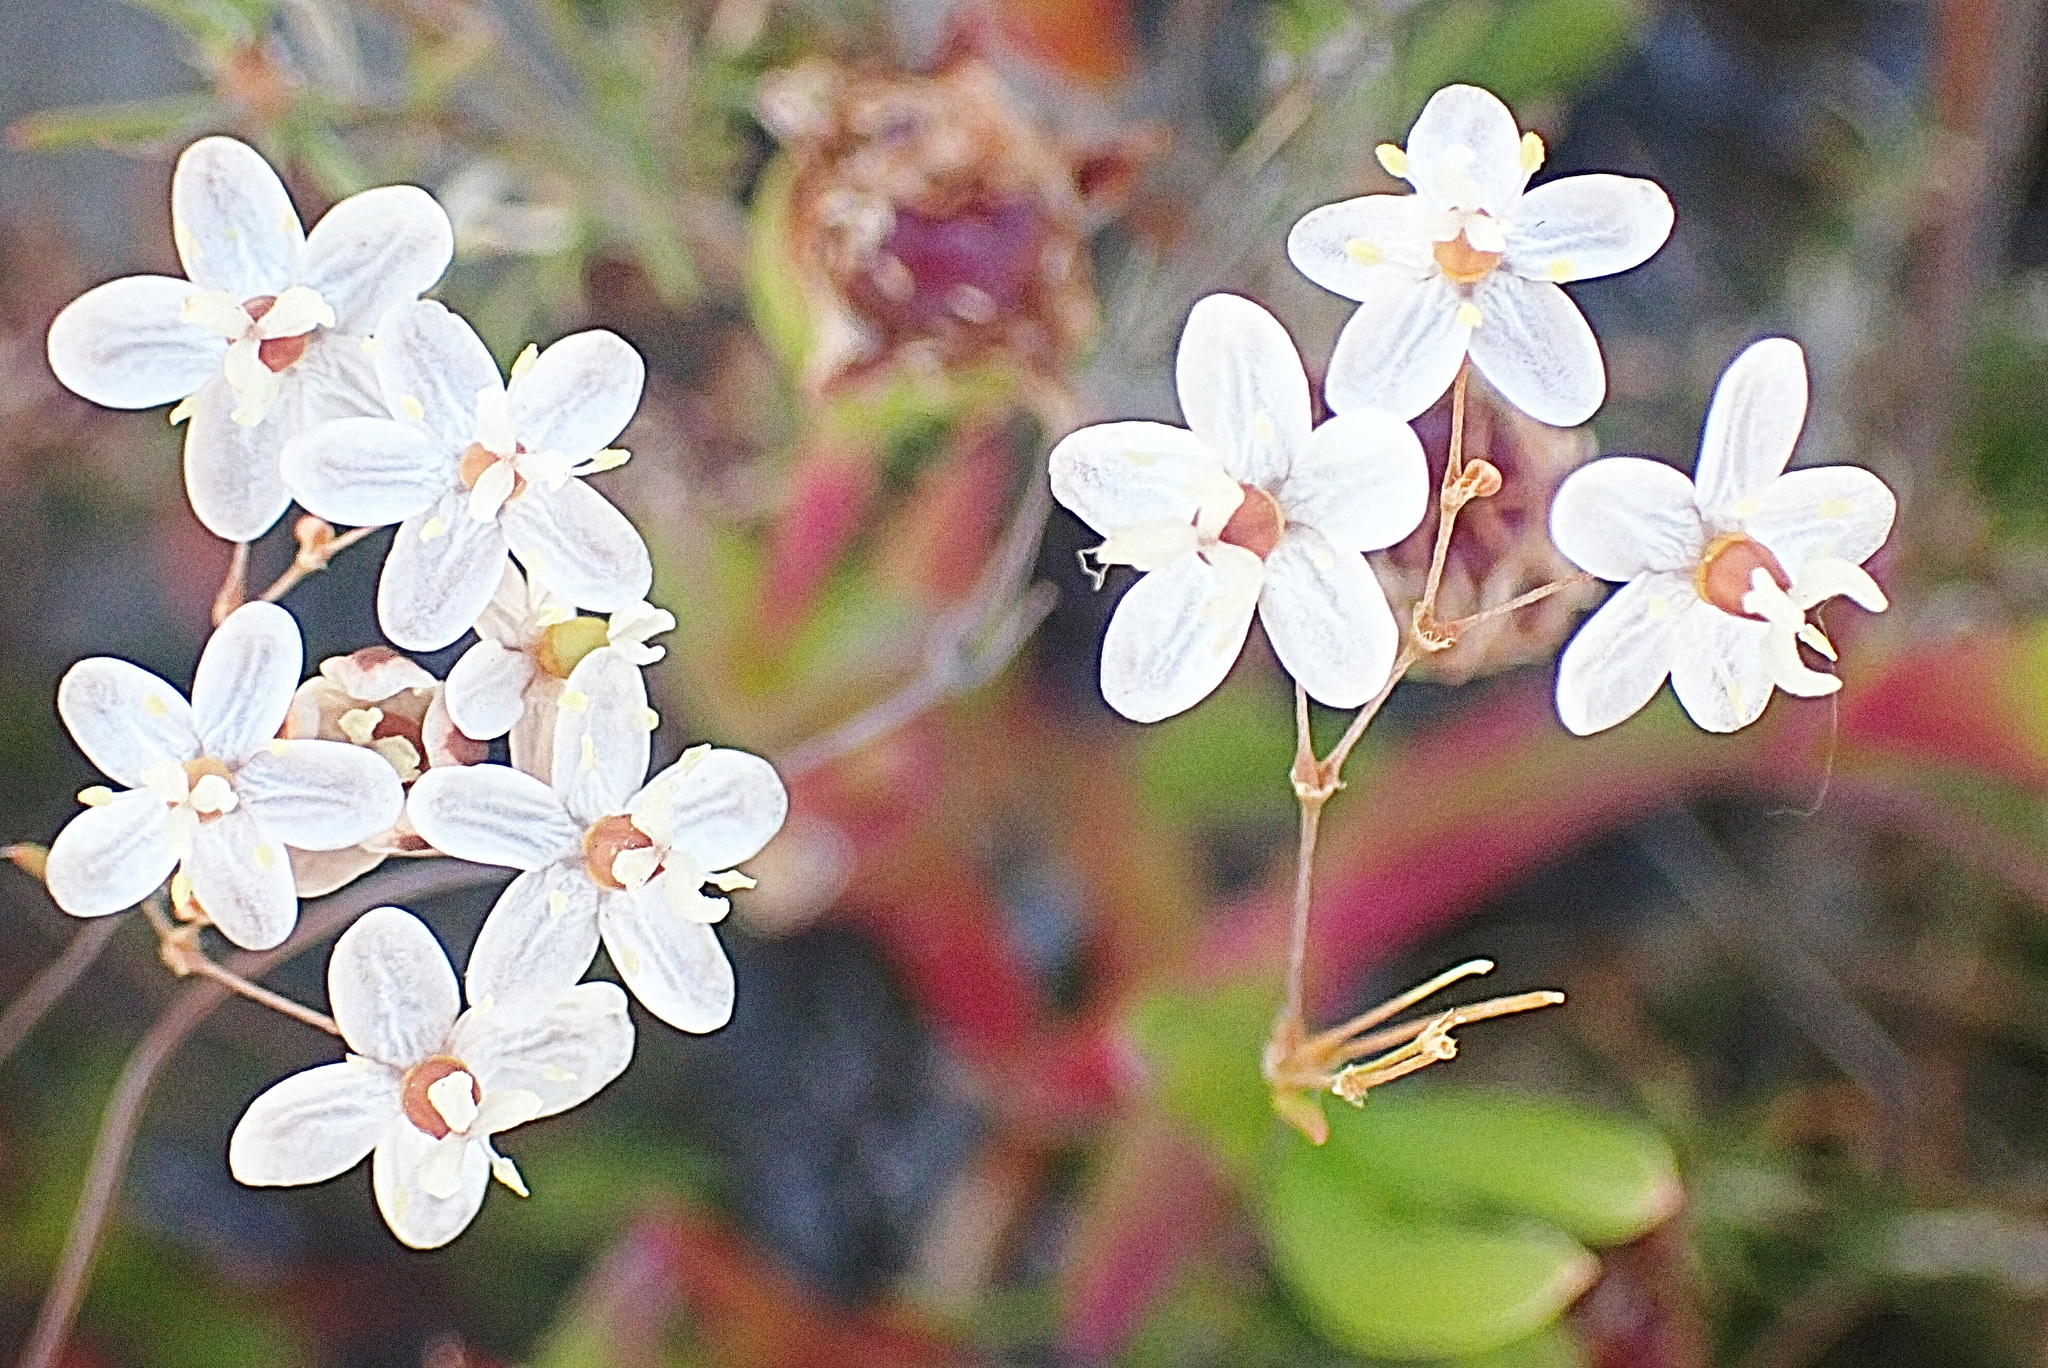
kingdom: Plantae
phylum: Tracheophyta
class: Magnoliopsida
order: Caryophyllales
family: Molluginaceae
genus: Pharnaceum
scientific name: Pharnaceum aurantium
